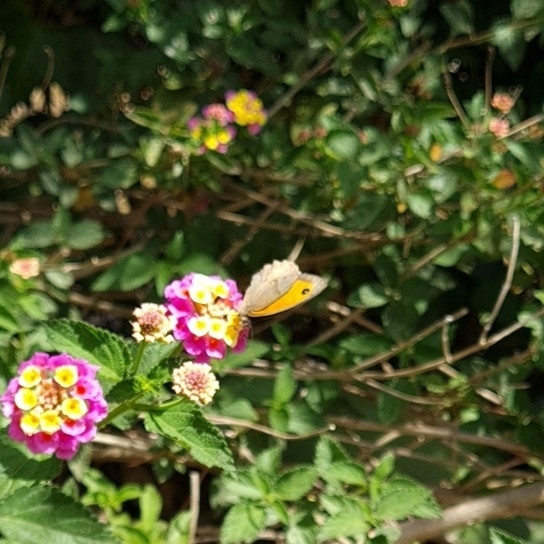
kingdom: Animalia
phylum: Arthropoda
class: Insecta
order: Lepidoptera
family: Nymphalidae
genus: Maniola
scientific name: Maniola jurtina
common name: Meadow brown
